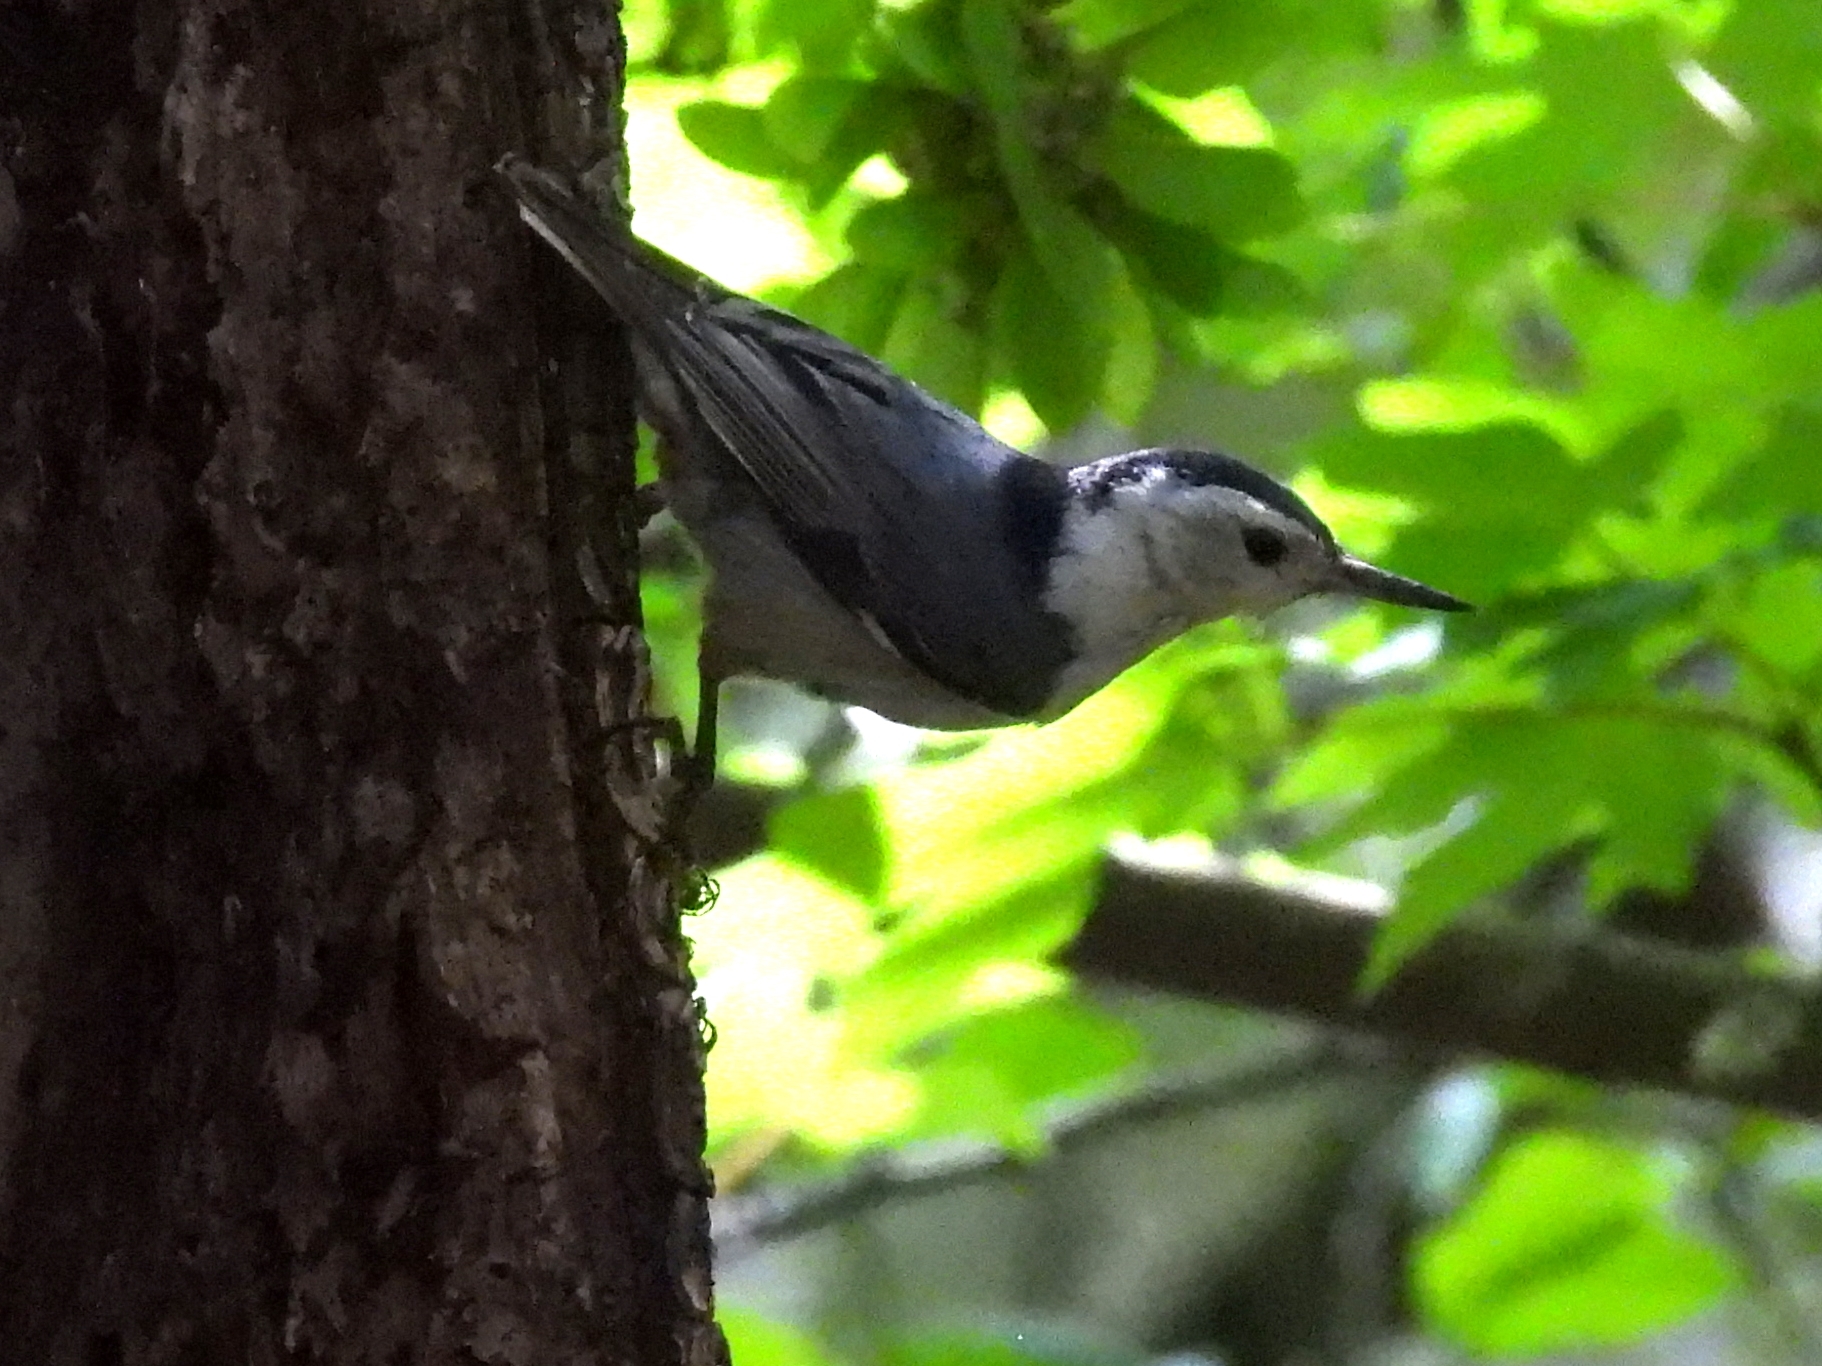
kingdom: Animalia
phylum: Chordata
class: Aves
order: Passeriformes
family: Sittidae
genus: Sitta
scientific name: Sitta carolinensis
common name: White-breasted nuthatch
